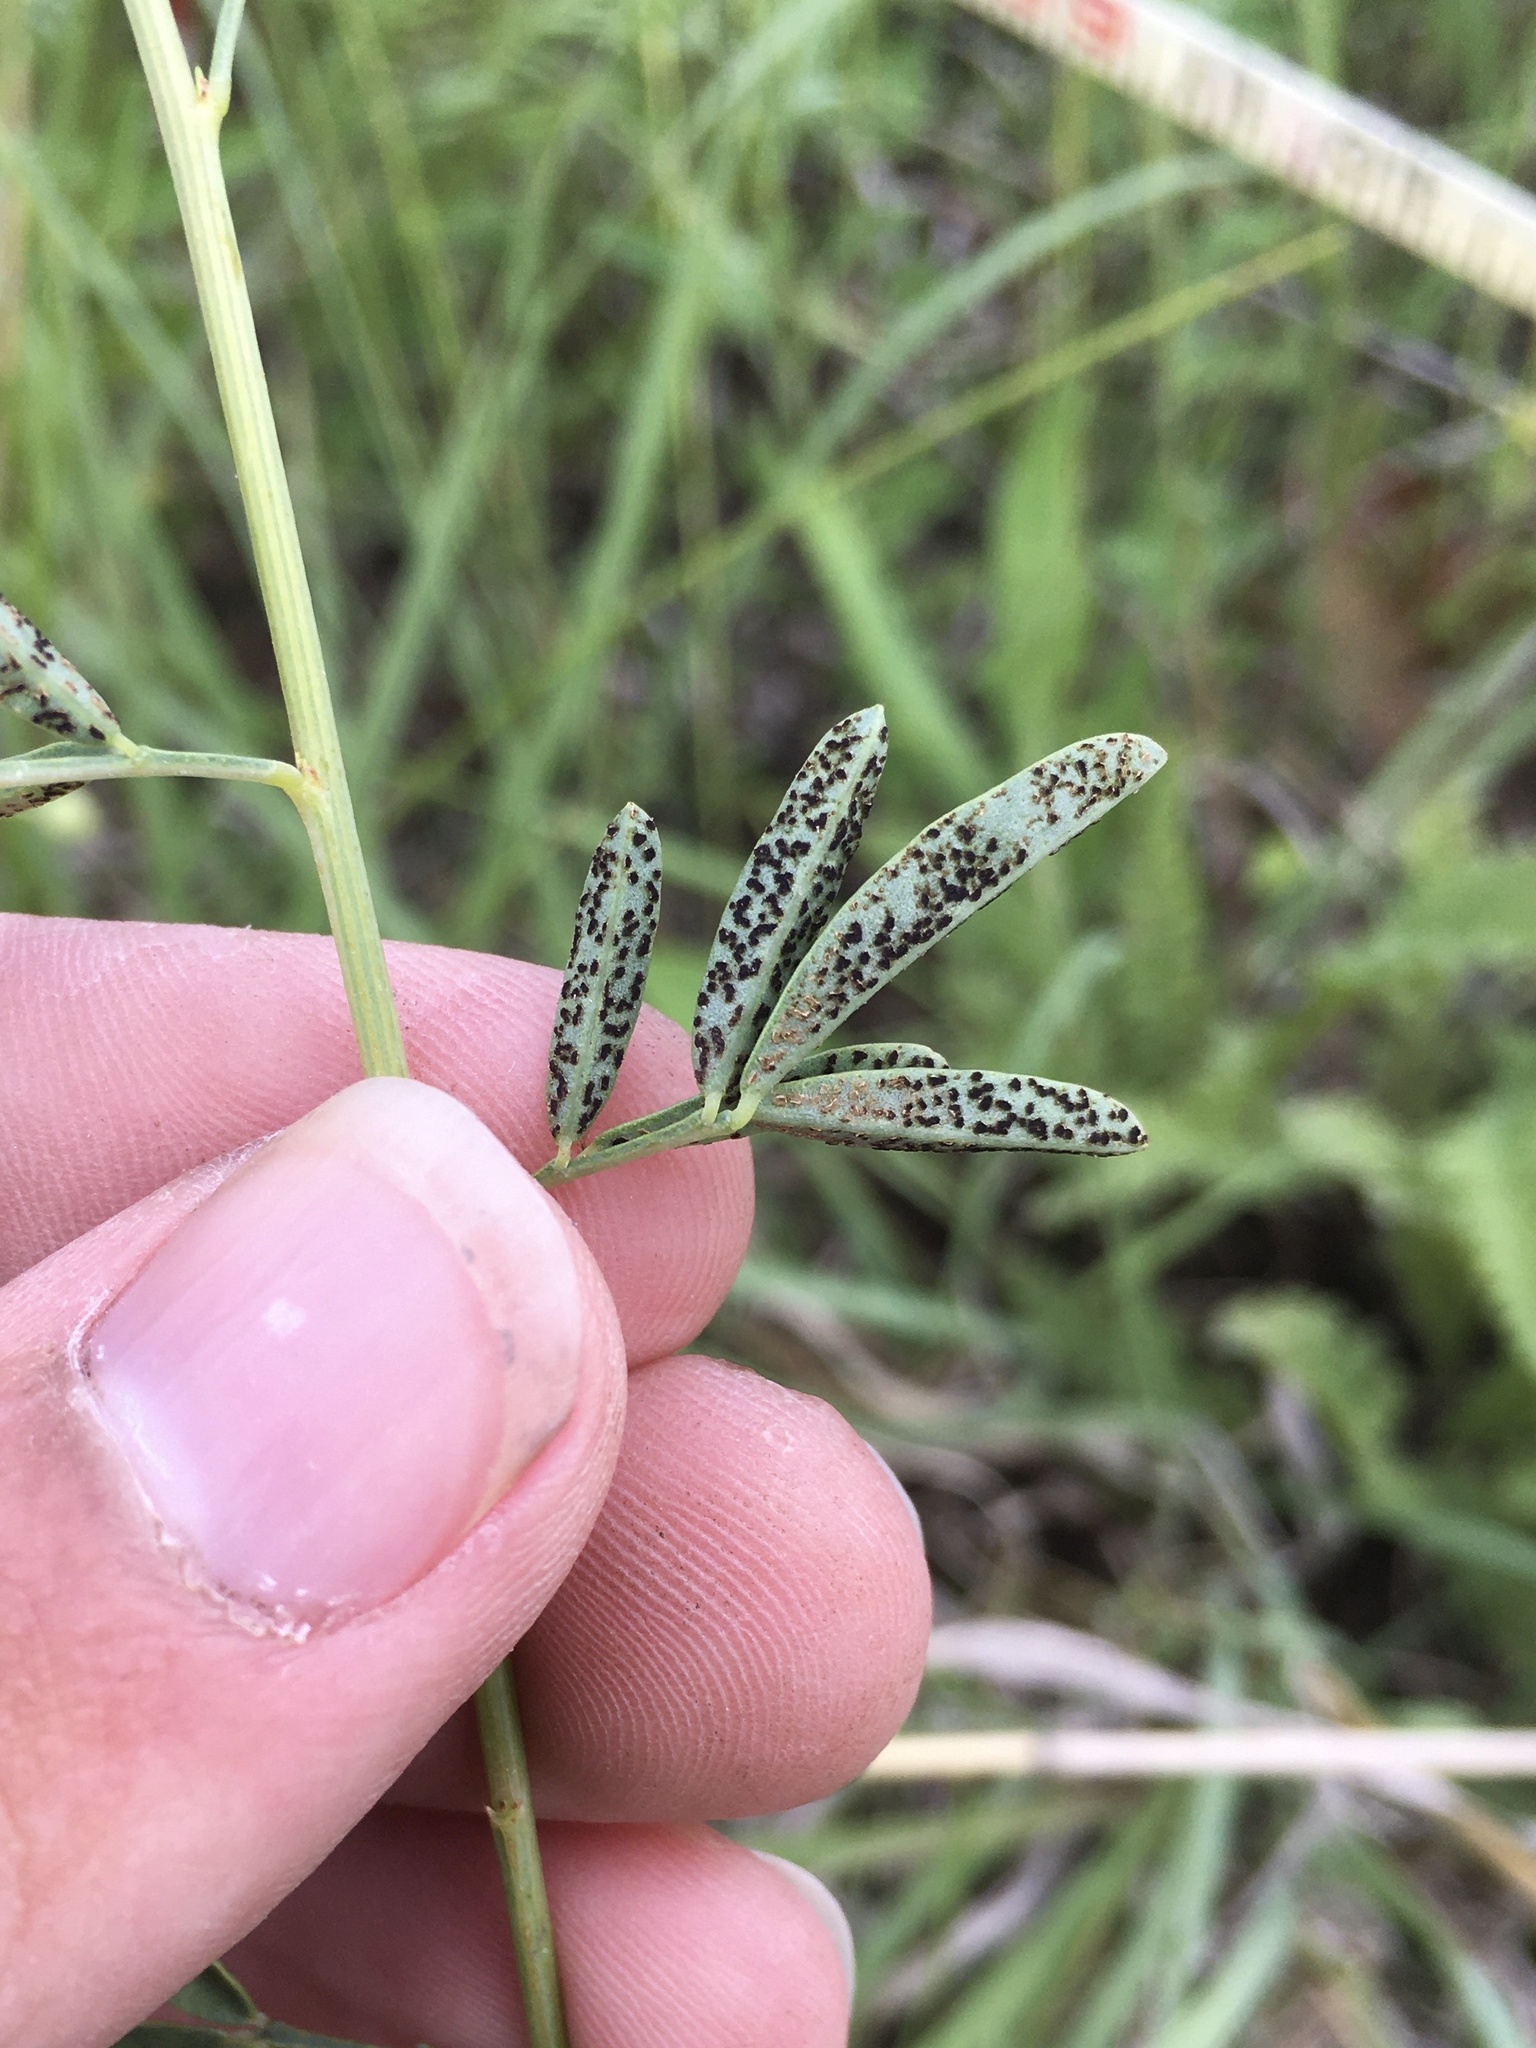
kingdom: Fungi
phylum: Basidiomycota
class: Pucciniomycetes
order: Pucciniales
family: Uropyxidaceae
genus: Uropyxis
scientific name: Uropyxis petalostemonis
